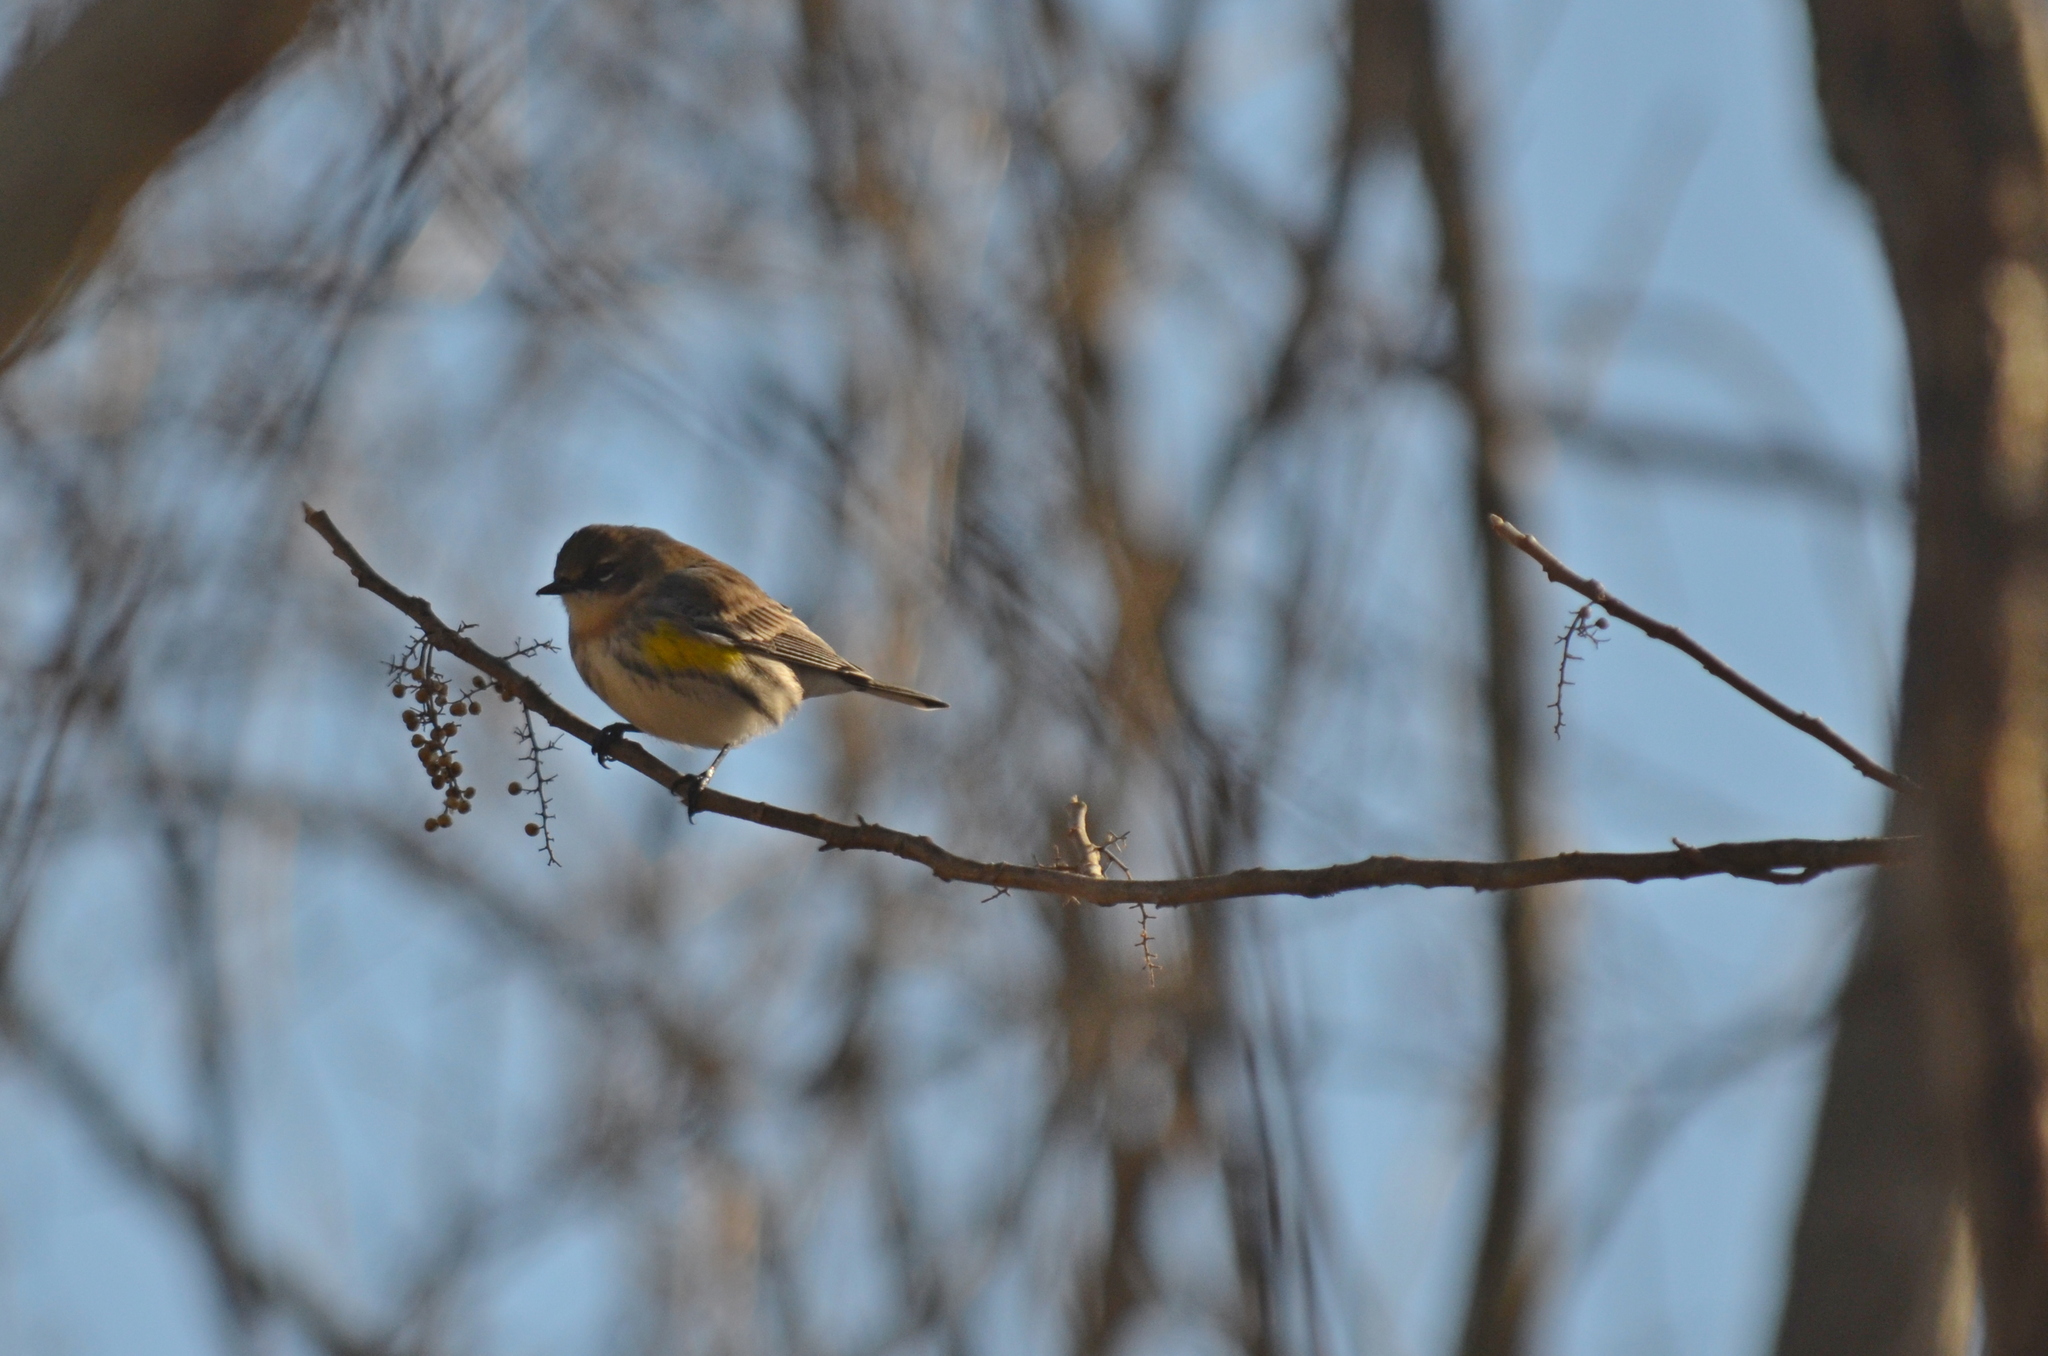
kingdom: Animalia
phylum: Chordata
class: Aves
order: Passeriformes
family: Parulidae
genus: Setophaga
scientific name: Setophaga coronata
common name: Myrtle warbler
